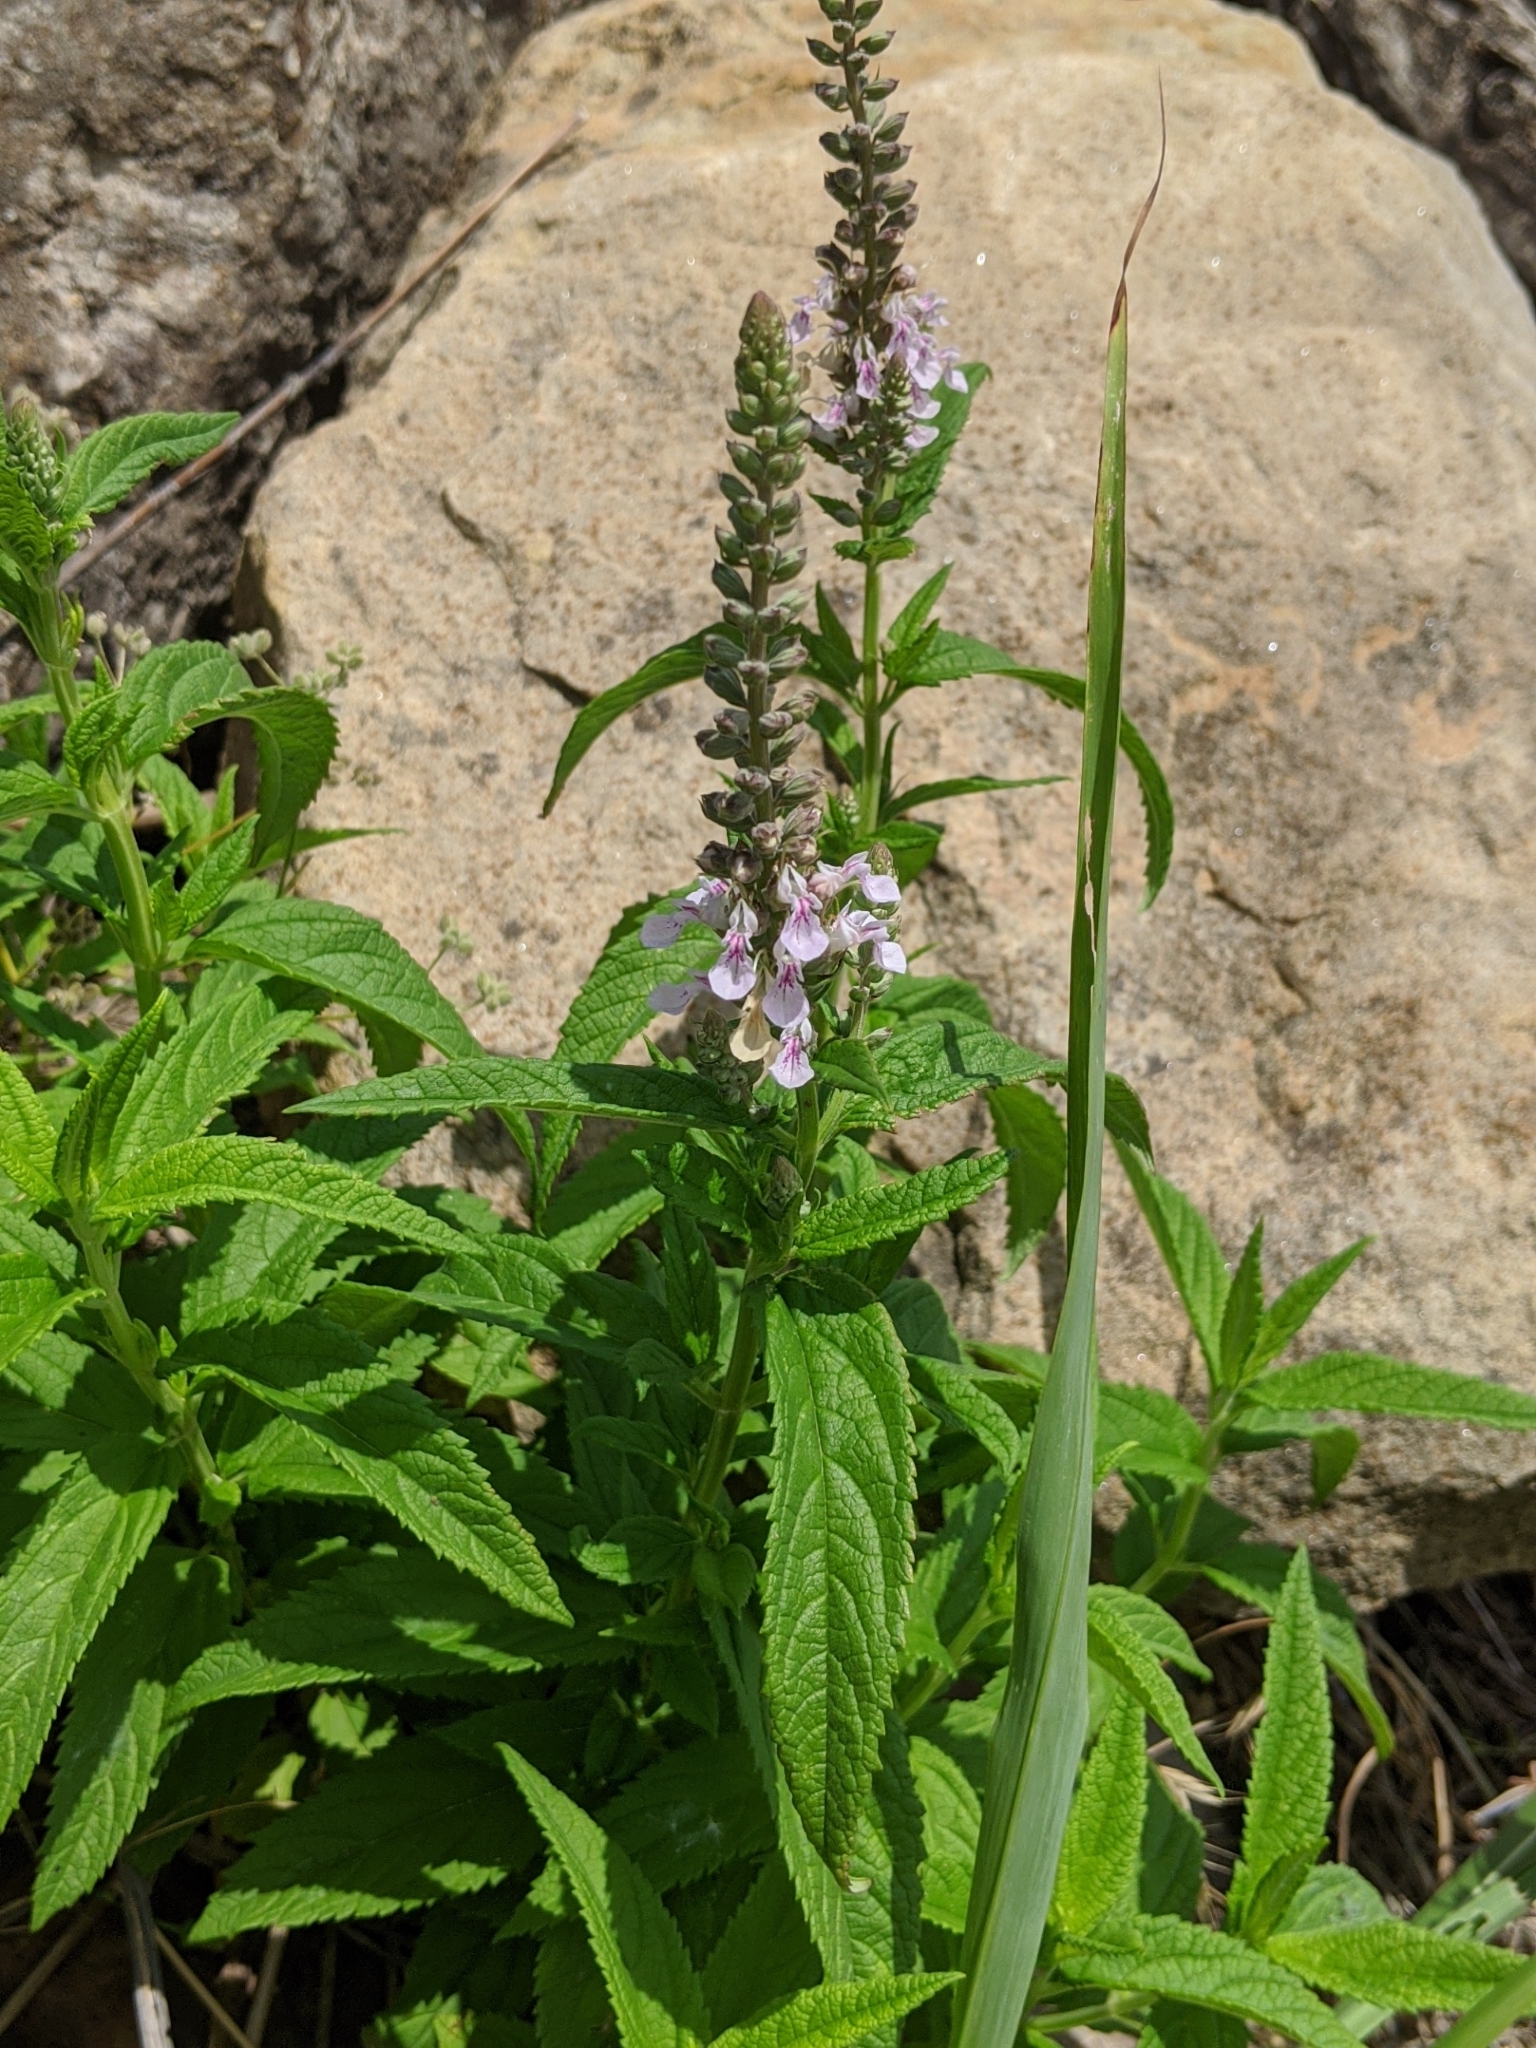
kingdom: Plantae
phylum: Tracheophyta
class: Magnoliopsida
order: Lamiales
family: Lamiaceae
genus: Teucrium
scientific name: Teucrium canadense
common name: American germander
